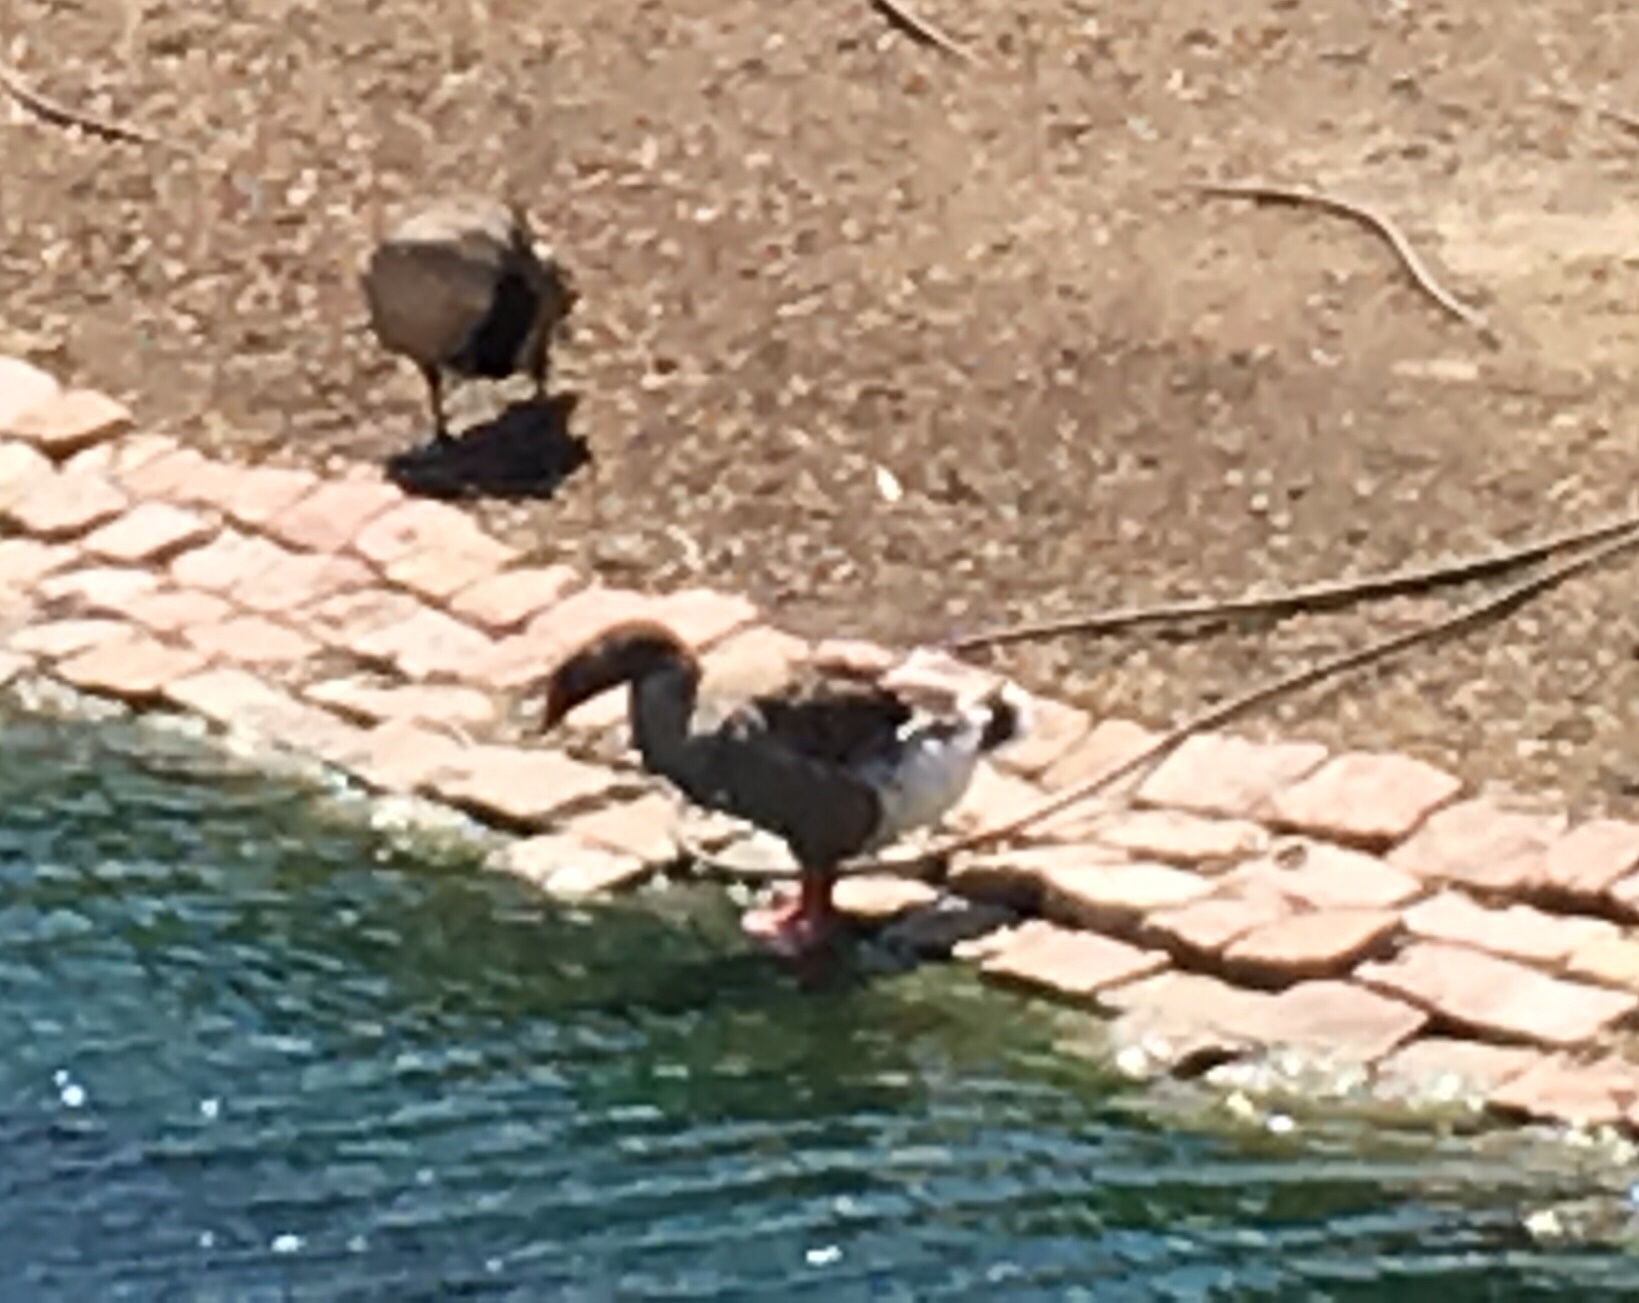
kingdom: Animalia
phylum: Chordata
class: Aves
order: Anseriformes
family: Anatidae
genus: Anser
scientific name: Anser anser
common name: Greylag goose
